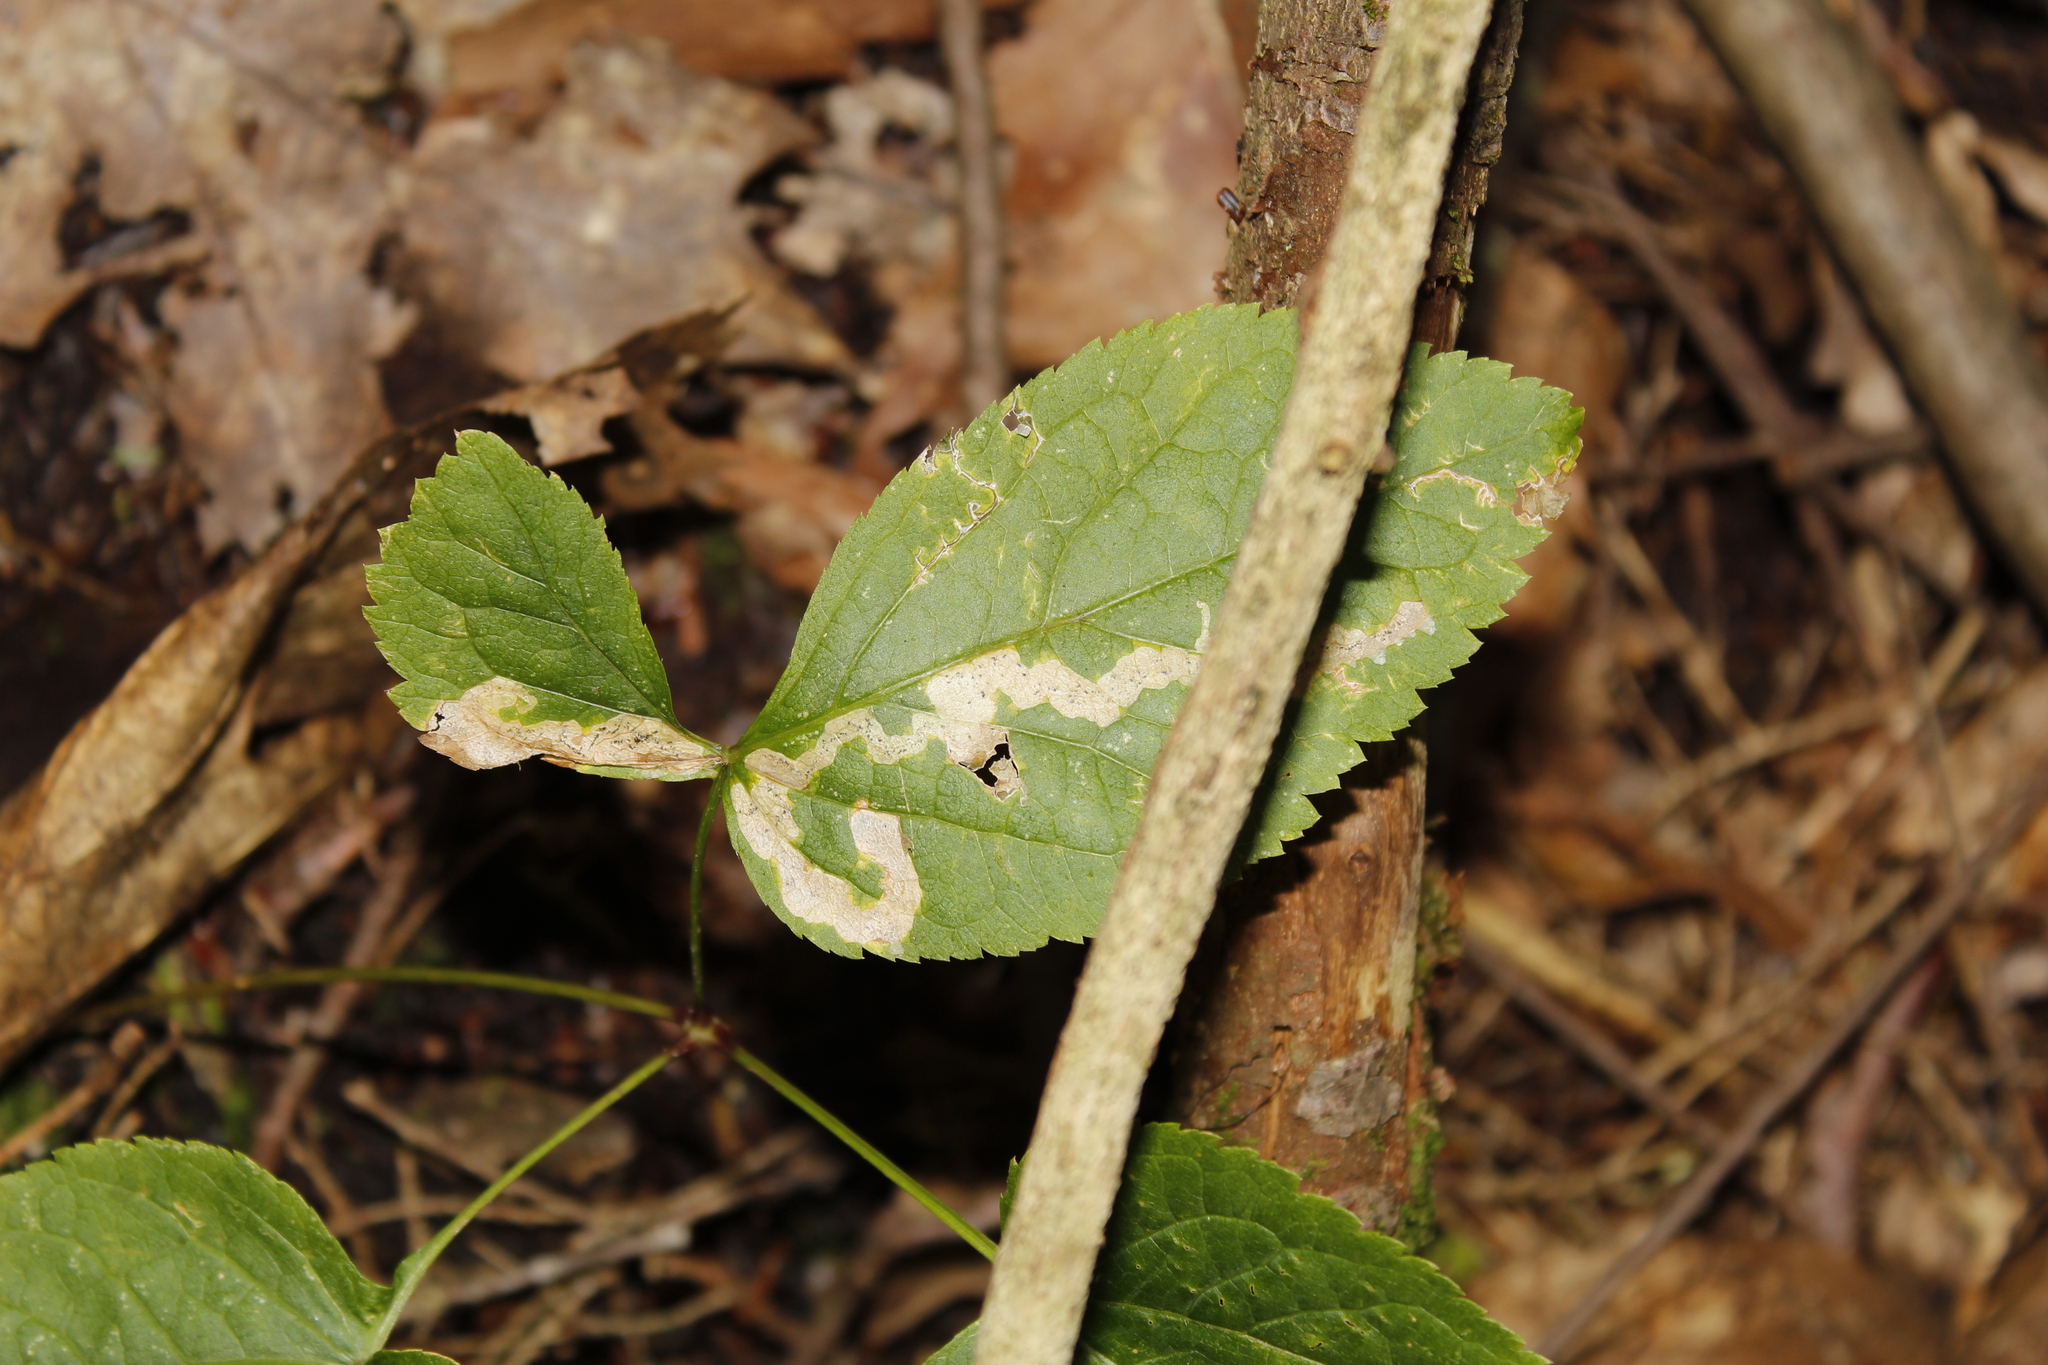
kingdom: Animalia
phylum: Arthropoda
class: Insecta
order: Diptera
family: Agromyzidae
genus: Phytomyza
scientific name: Phytomyza aralivora
